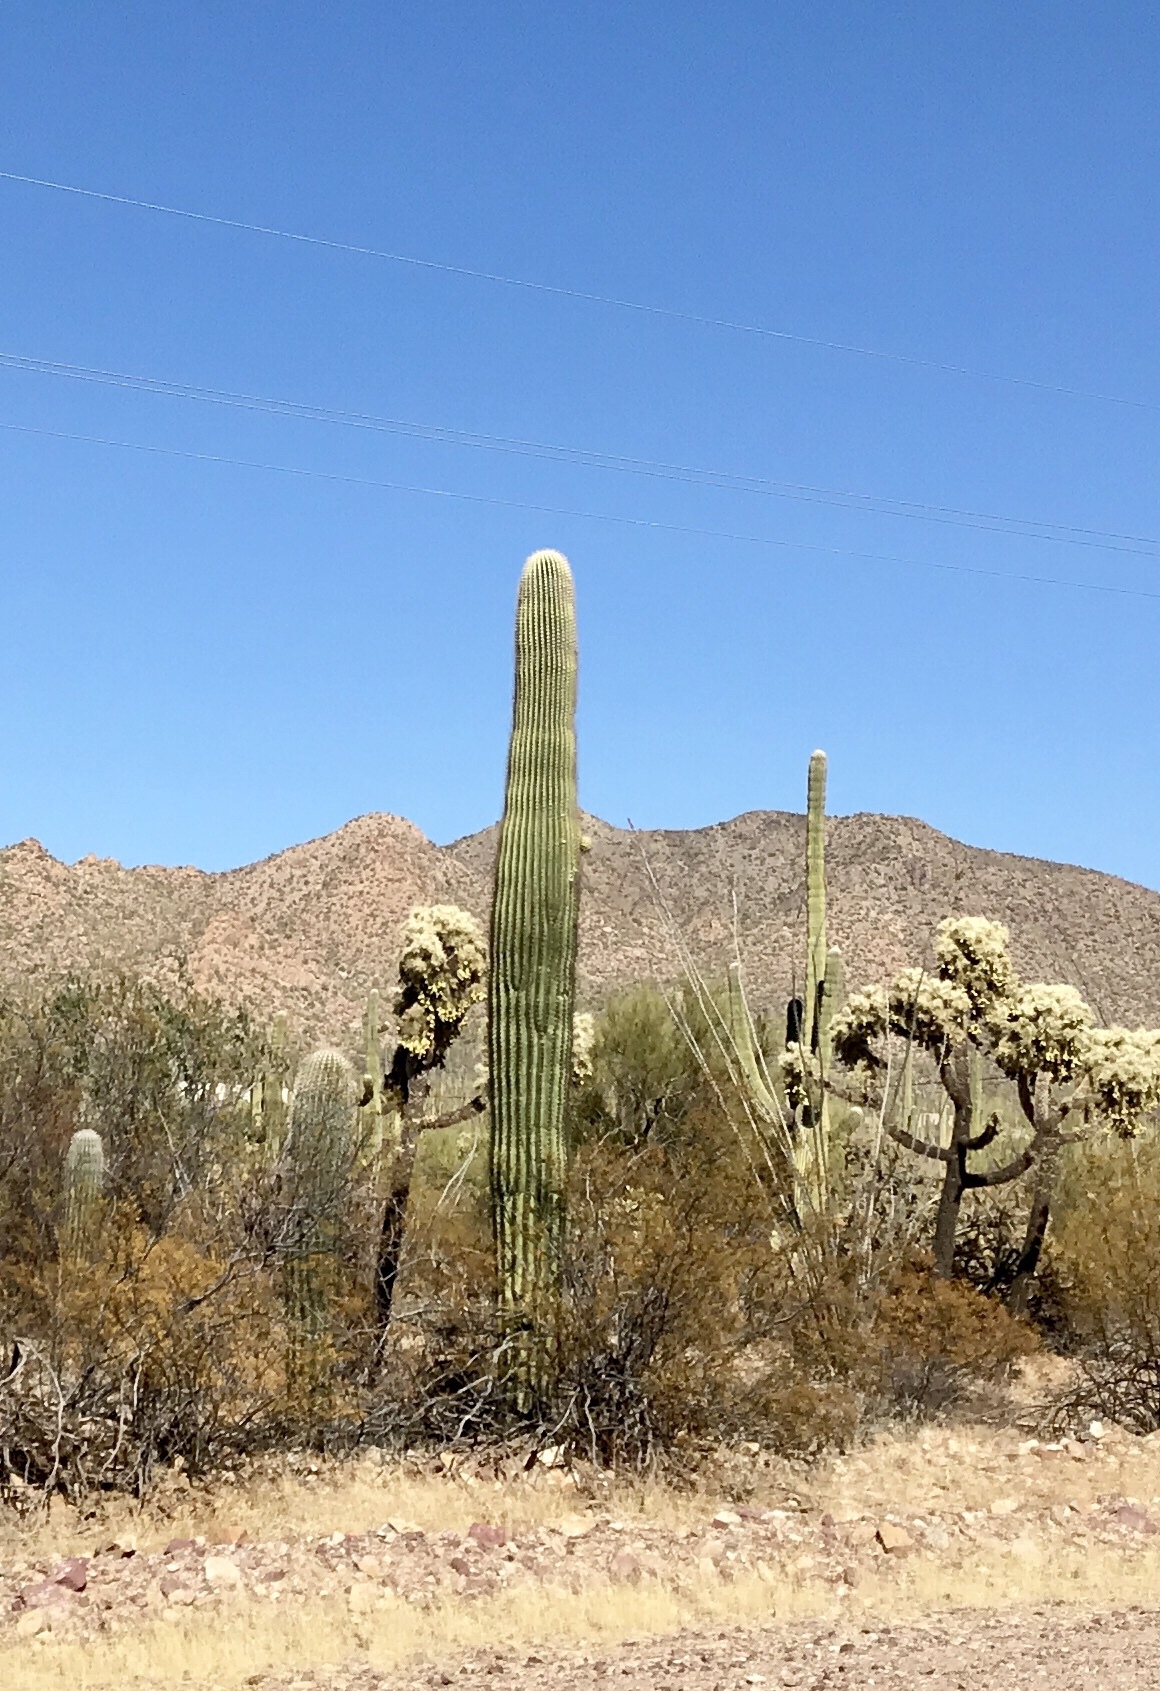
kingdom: Plantae
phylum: Tracheophyta
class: Magnoliopsida
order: Caryophyllales
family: Cactaceae
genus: Carnegiea
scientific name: Carnegiea gigantea
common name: Saguaro
